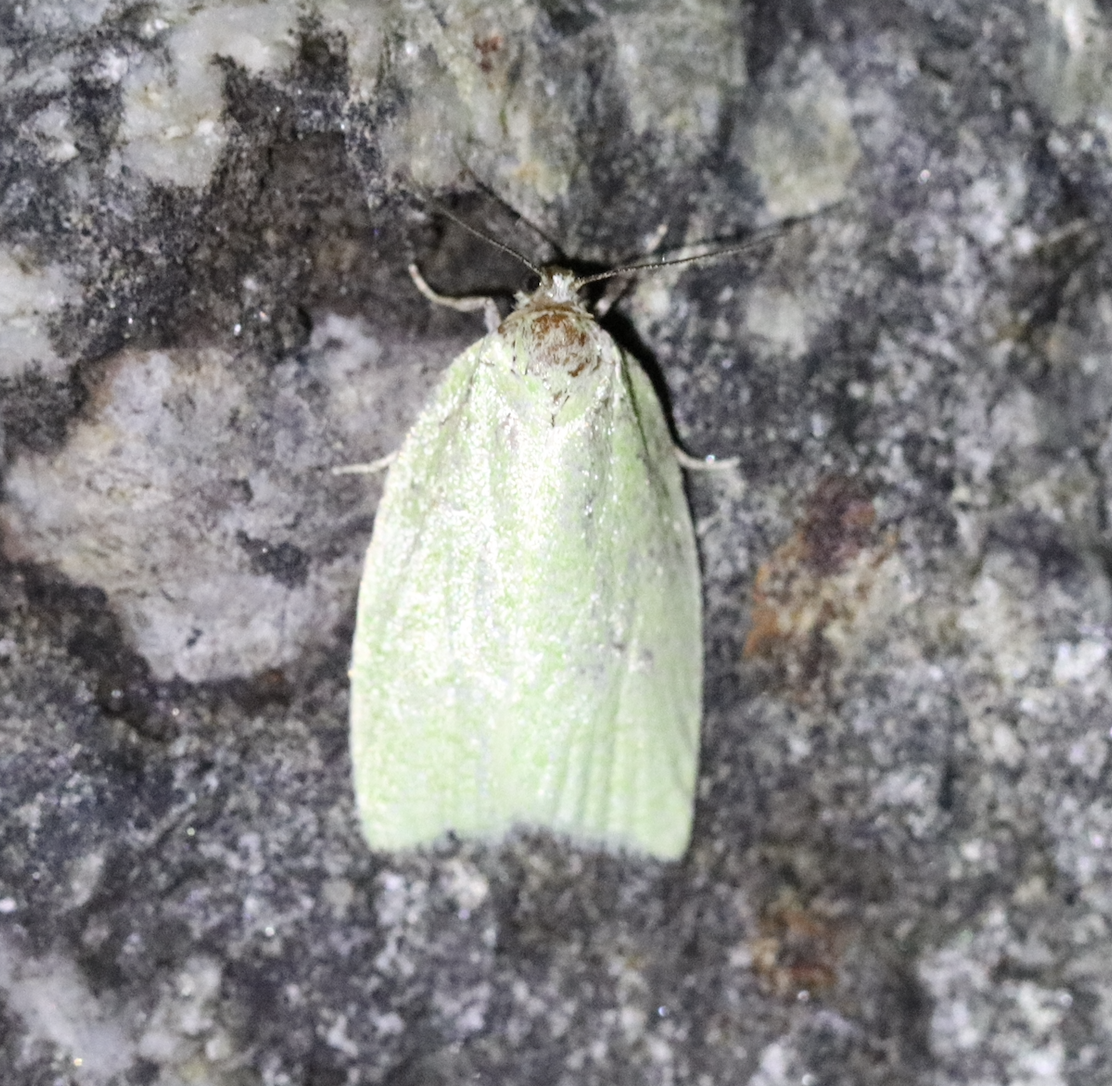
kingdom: Animalia
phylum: Arthropoda
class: Insecta
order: Lepidoptera
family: Tortricidae
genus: Tortrix
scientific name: Tortrix viridana
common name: Green oak tortrix
